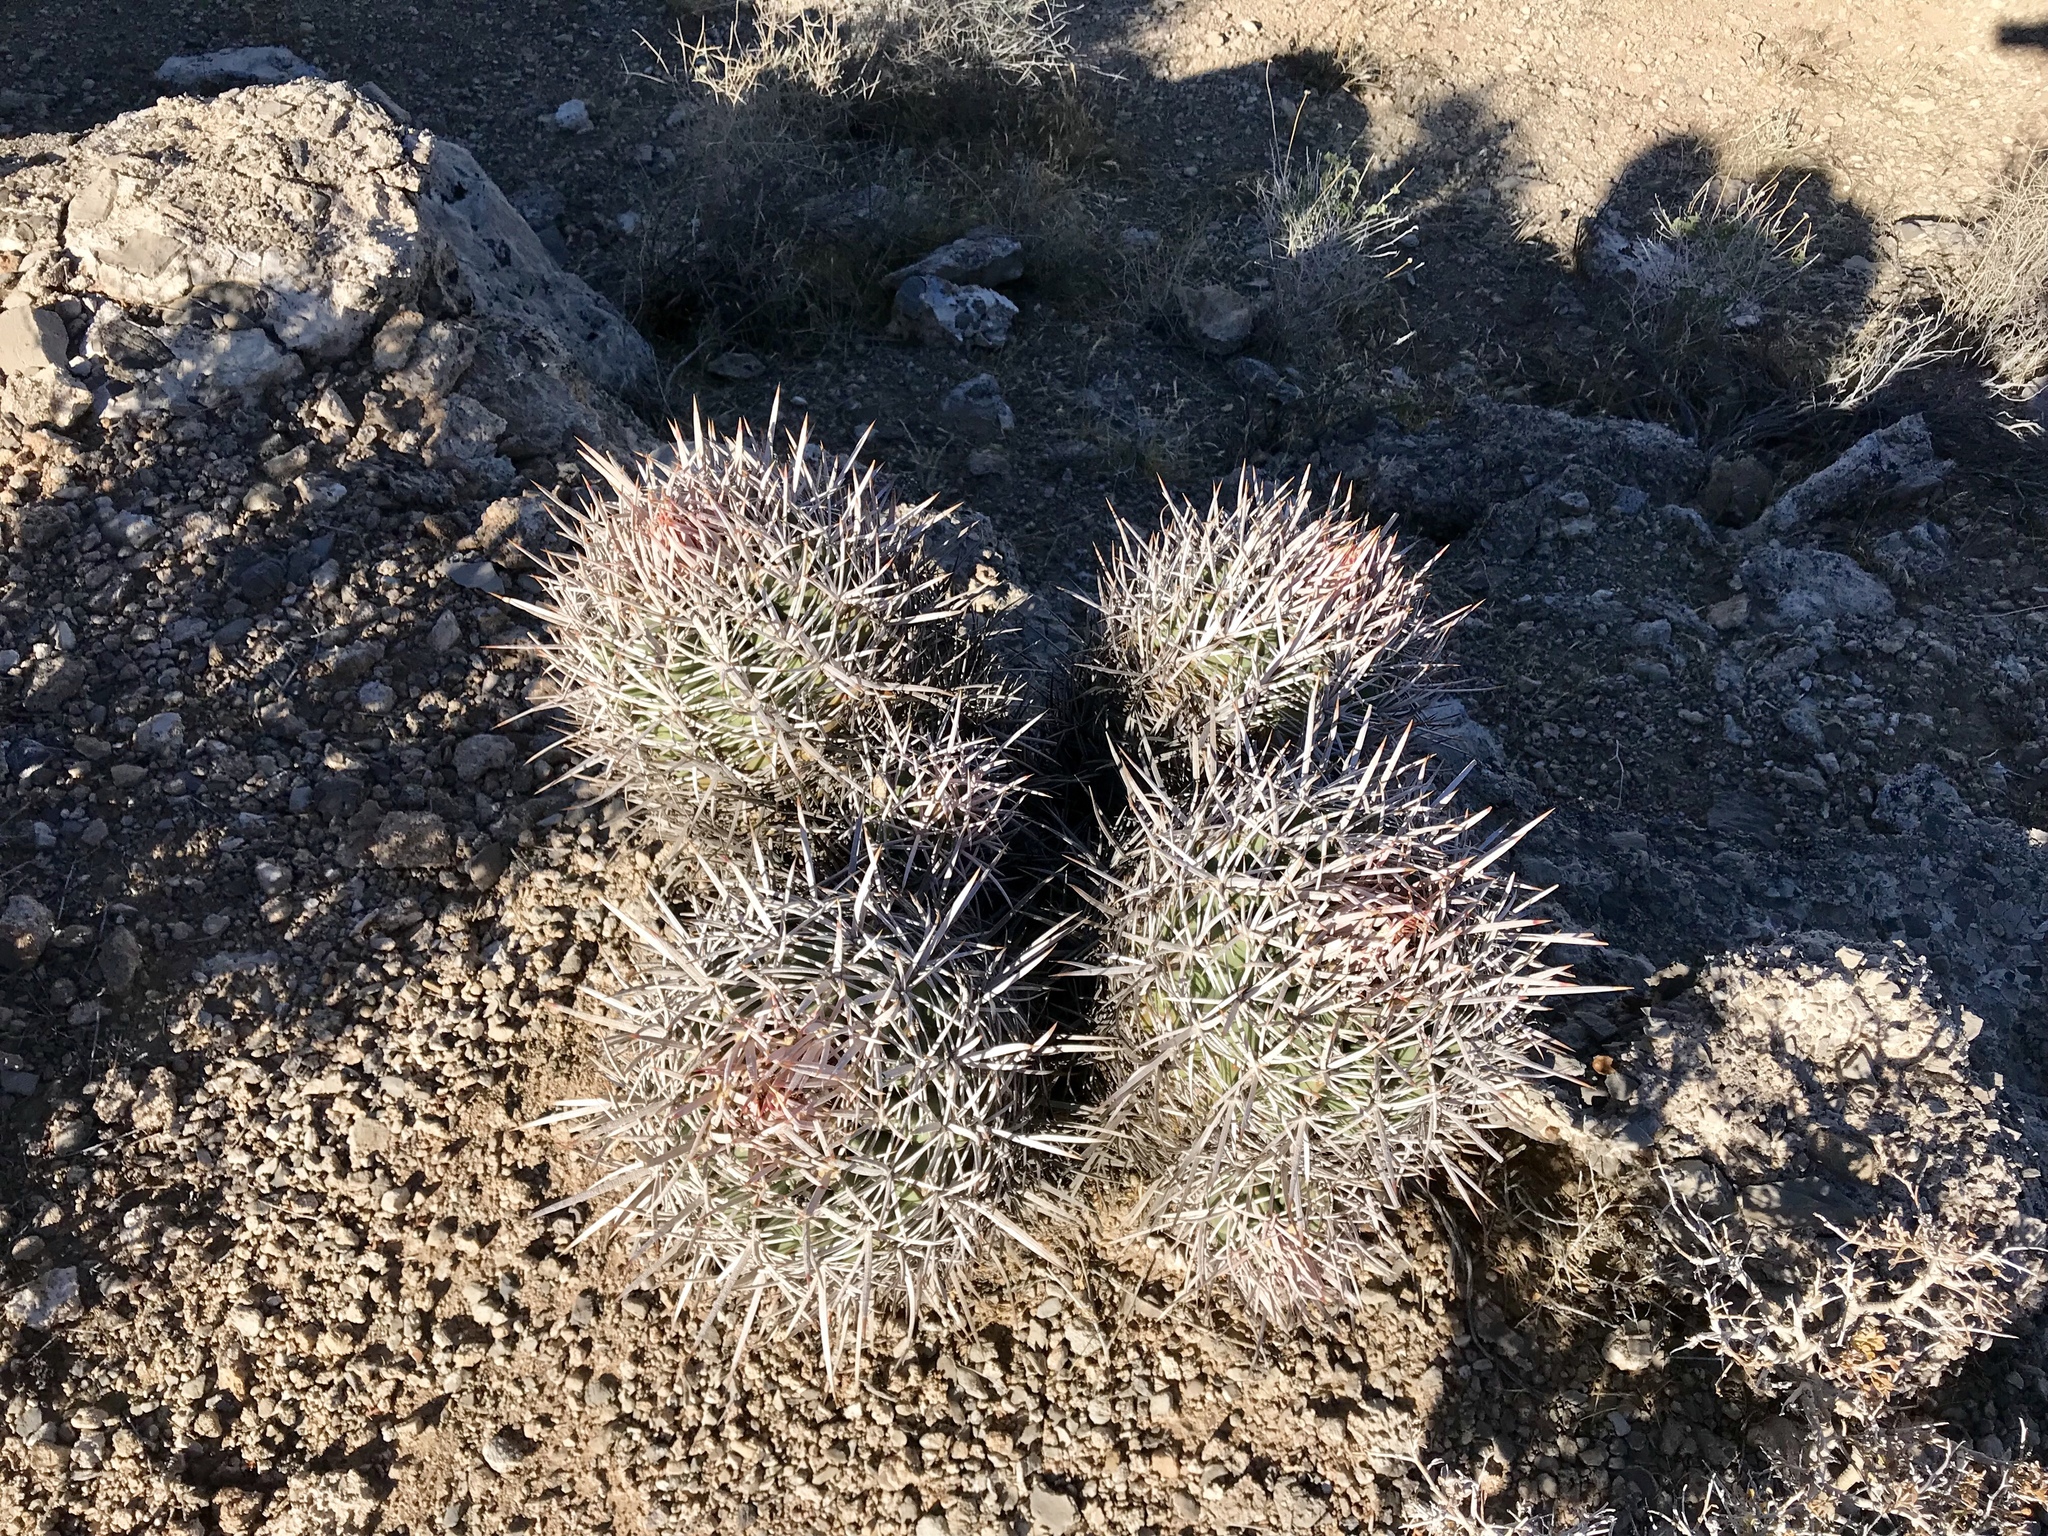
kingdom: Plantae
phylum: Tracheophyta
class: Magnoliopsida
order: Caryophyllales
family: Cactaceae
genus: Echinocactus
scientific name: Echinocactus polycephalus
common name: Cottontop cactus
